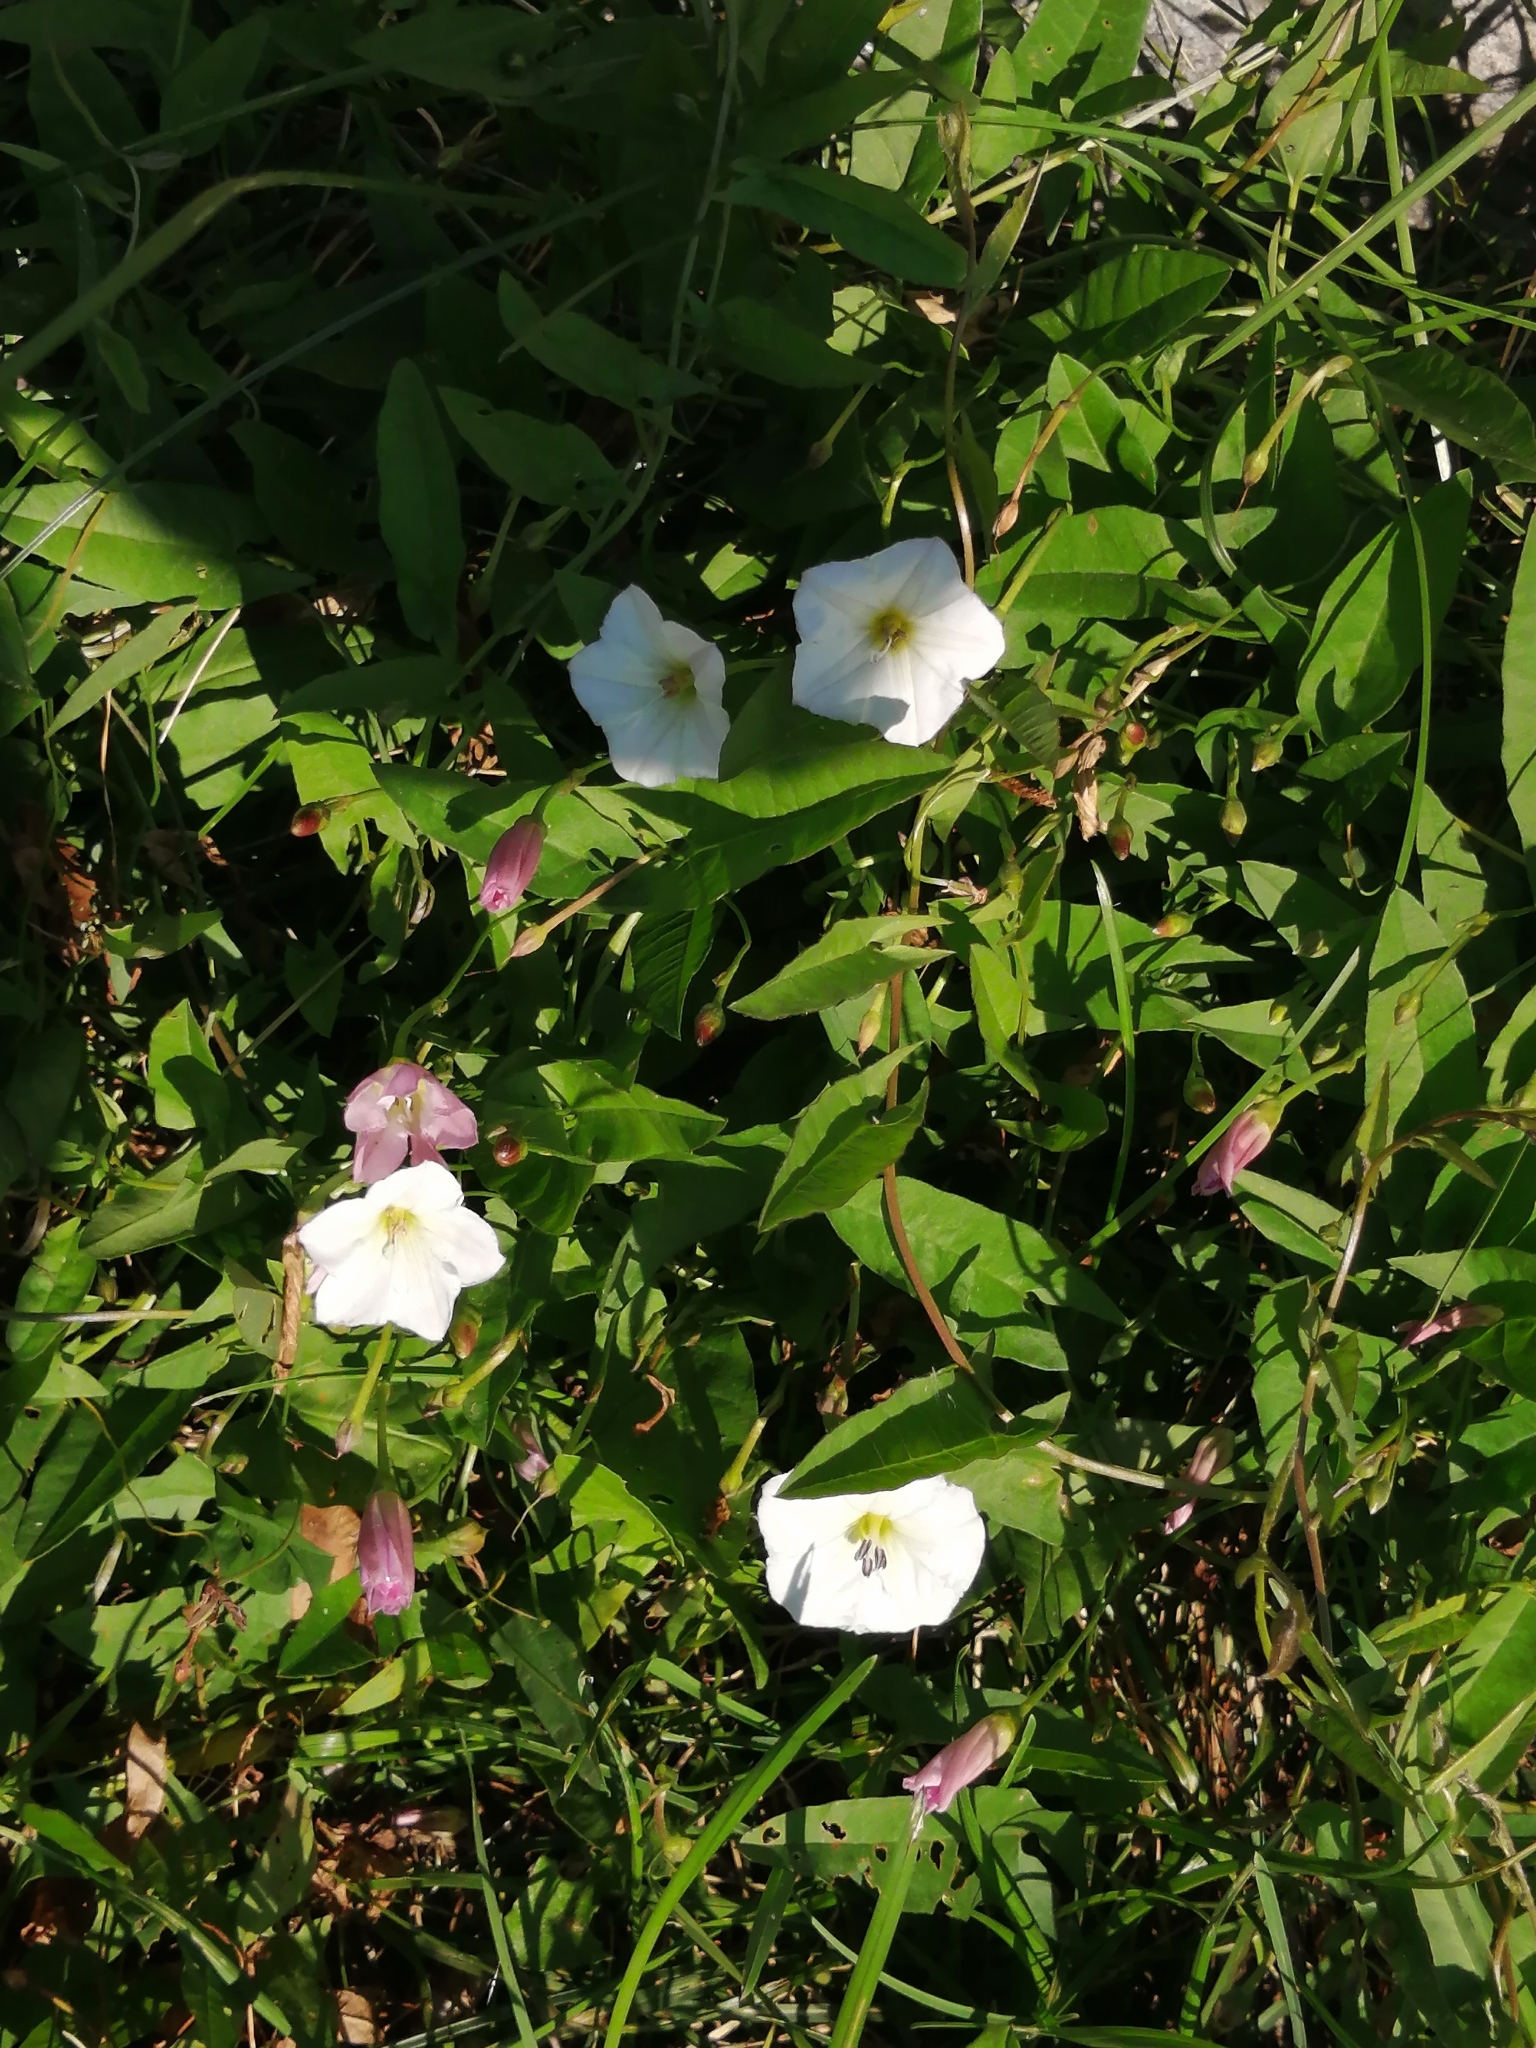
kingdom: Plantae
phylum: Tracheophyta
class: Magnoliopsida
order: Solanales
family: Convolvulaceae
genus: Convolvulus
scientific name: Convolvulus arvensis
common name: Field bindweed
